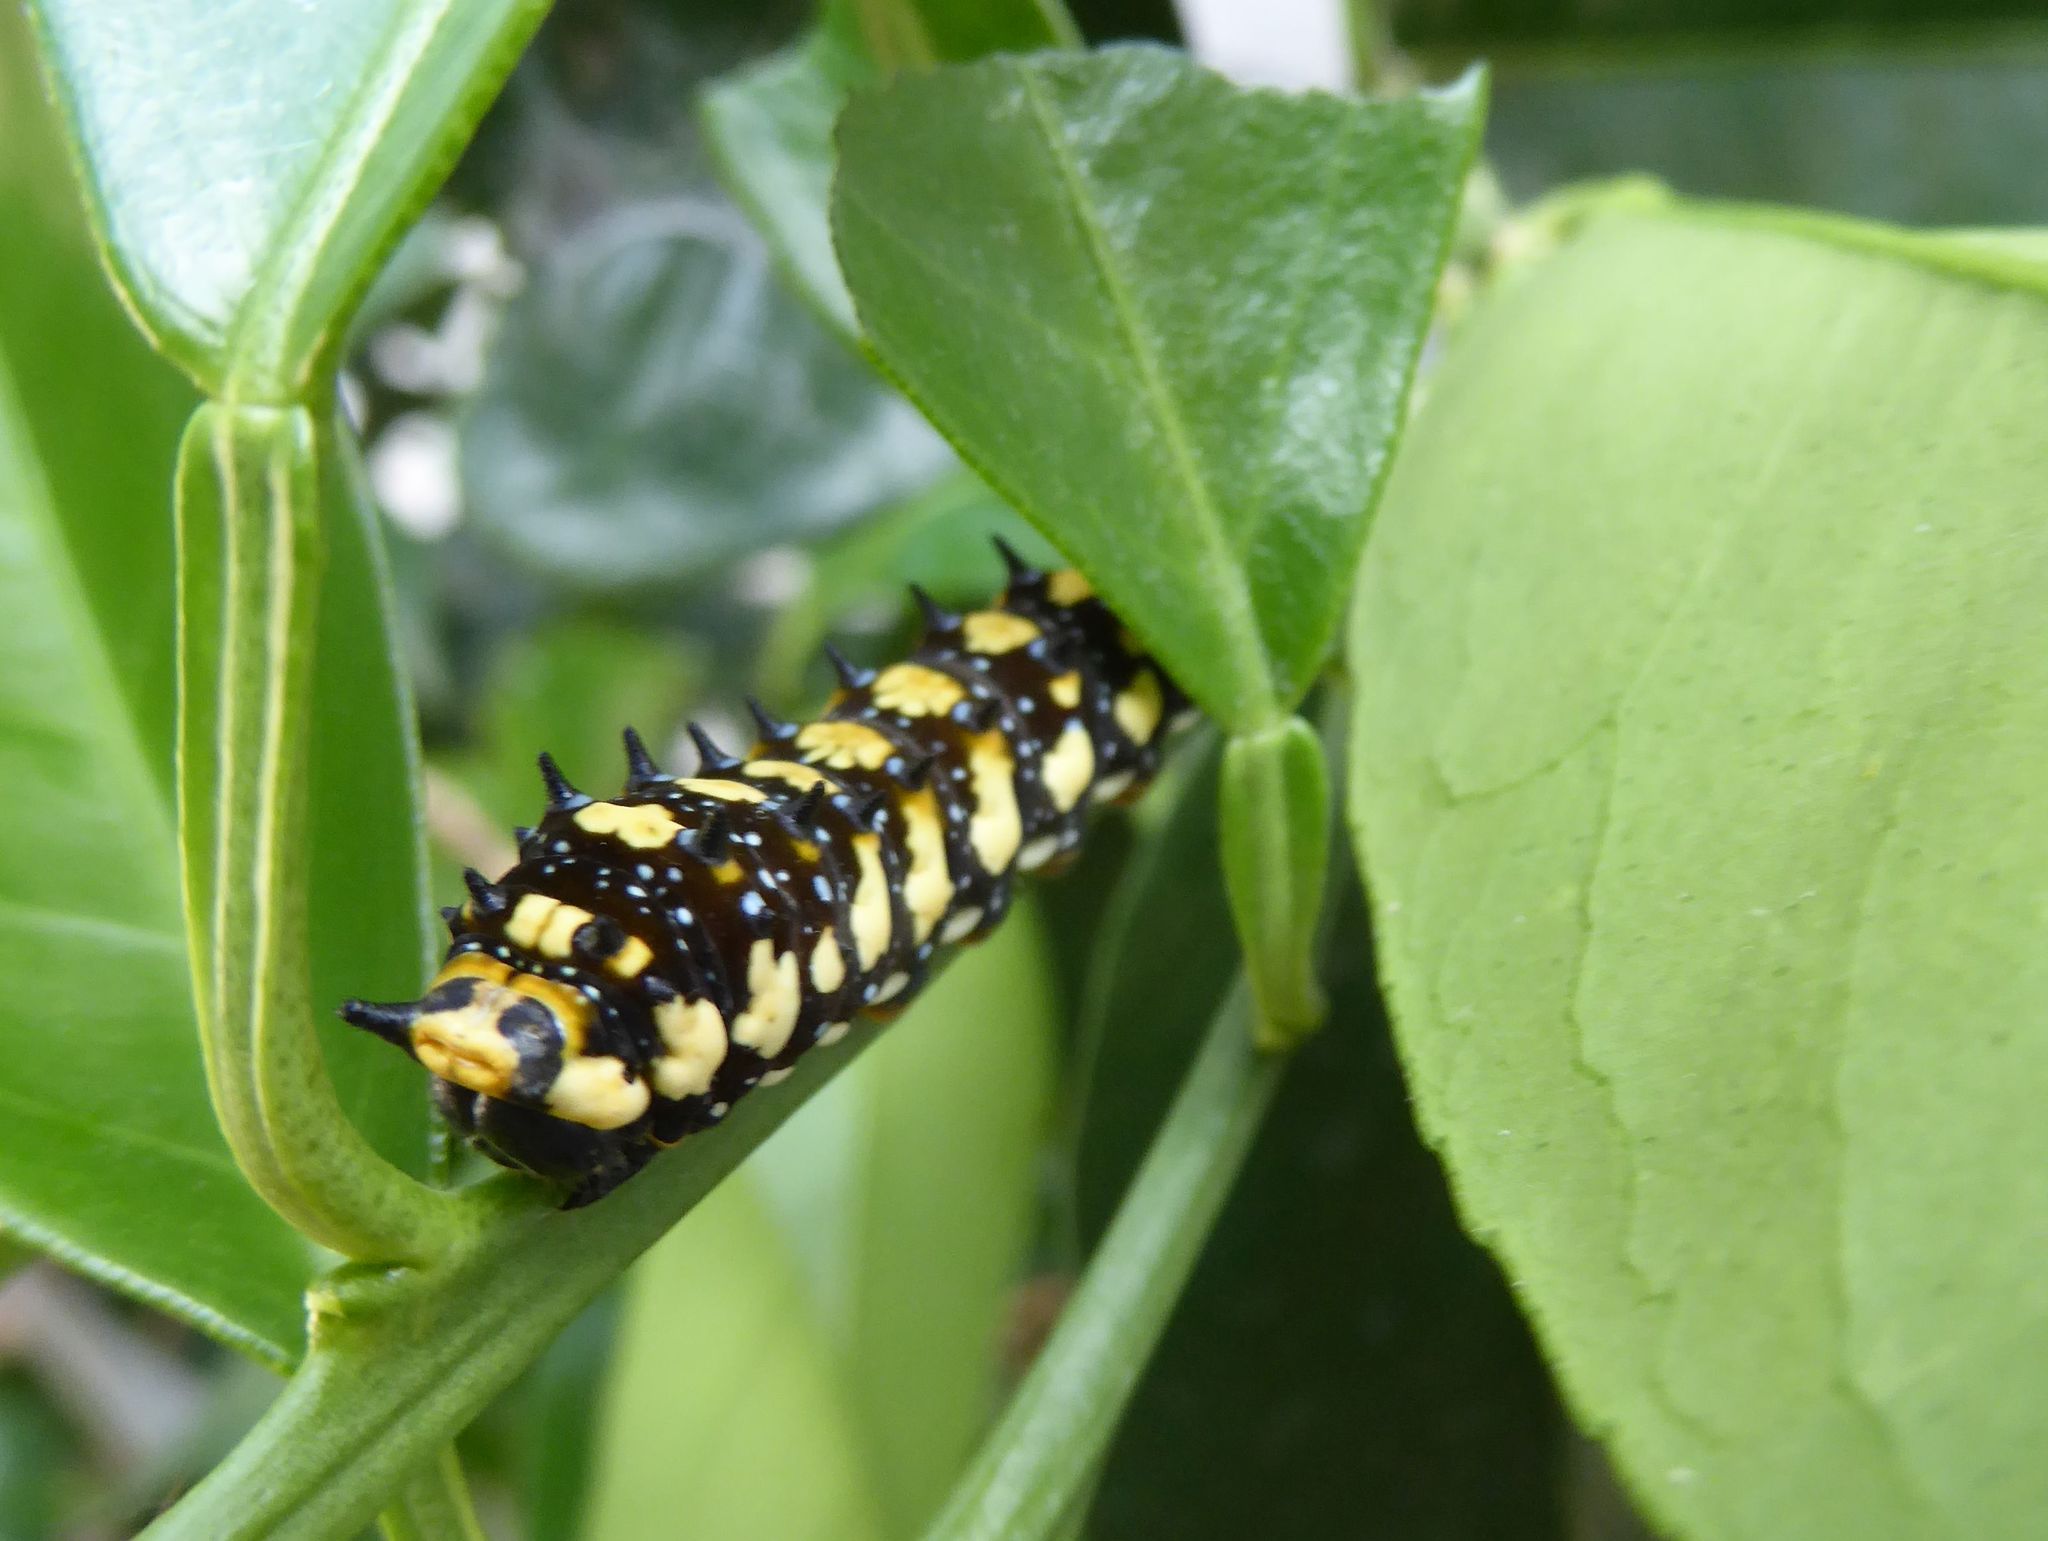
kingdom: Animalia
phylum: Arthropoda
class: Insecta
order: Lepidoptera
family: Papilionidae
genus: Papilio
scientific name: Papilio anactus
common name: Dingy swallowtail
